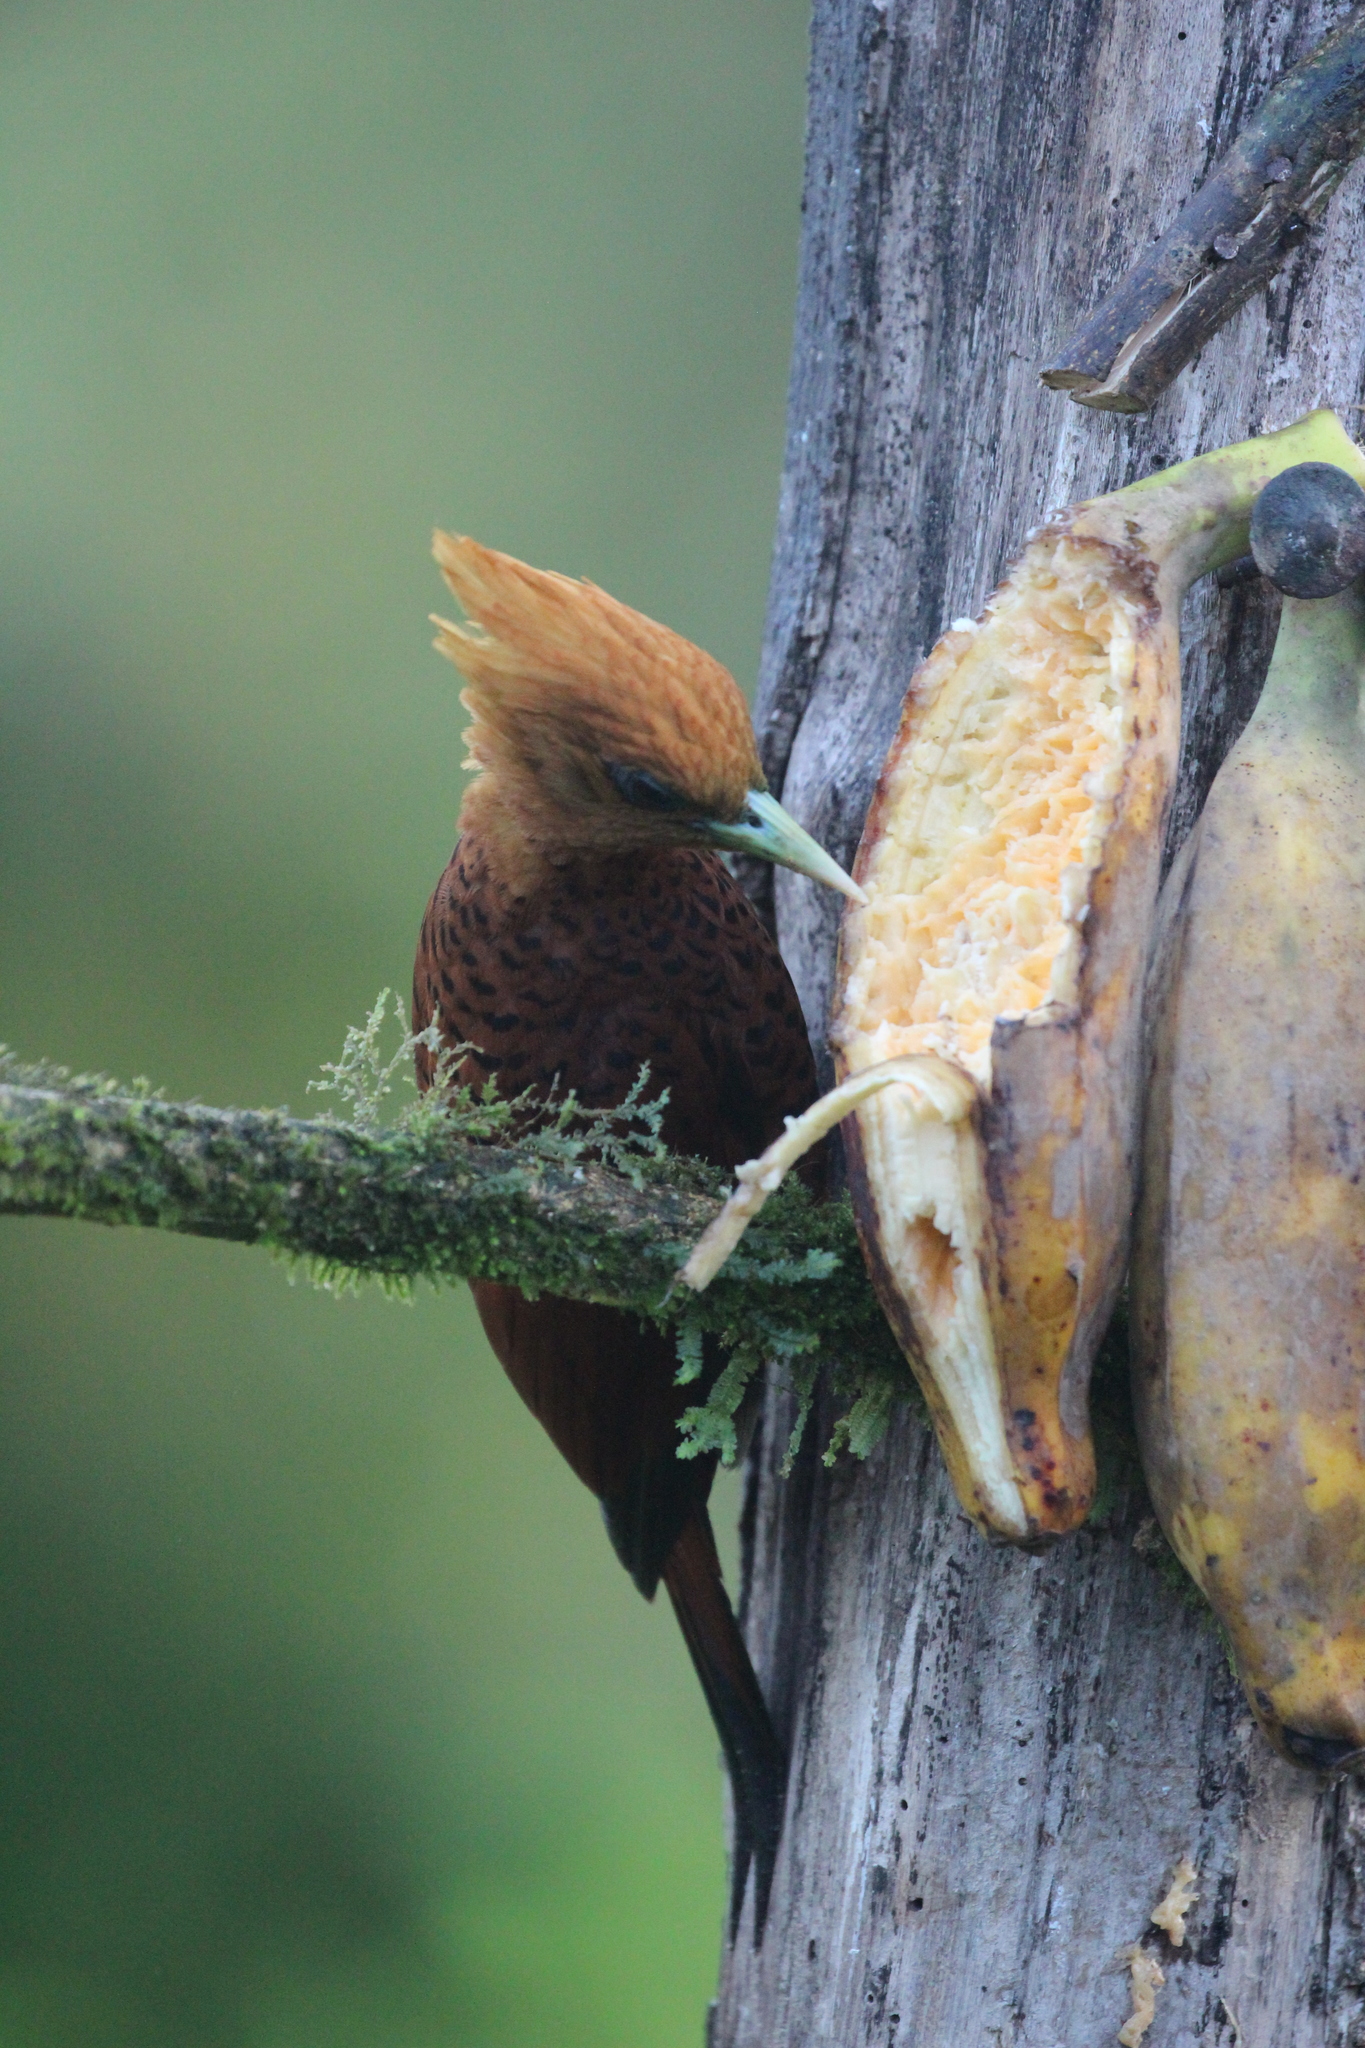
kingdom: Animalia
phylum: Chordata
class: Aves
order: Piciformes
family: Picidae
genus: Celeus
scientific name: Celeus castaneus
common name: Chestnut-colored woodpecker
